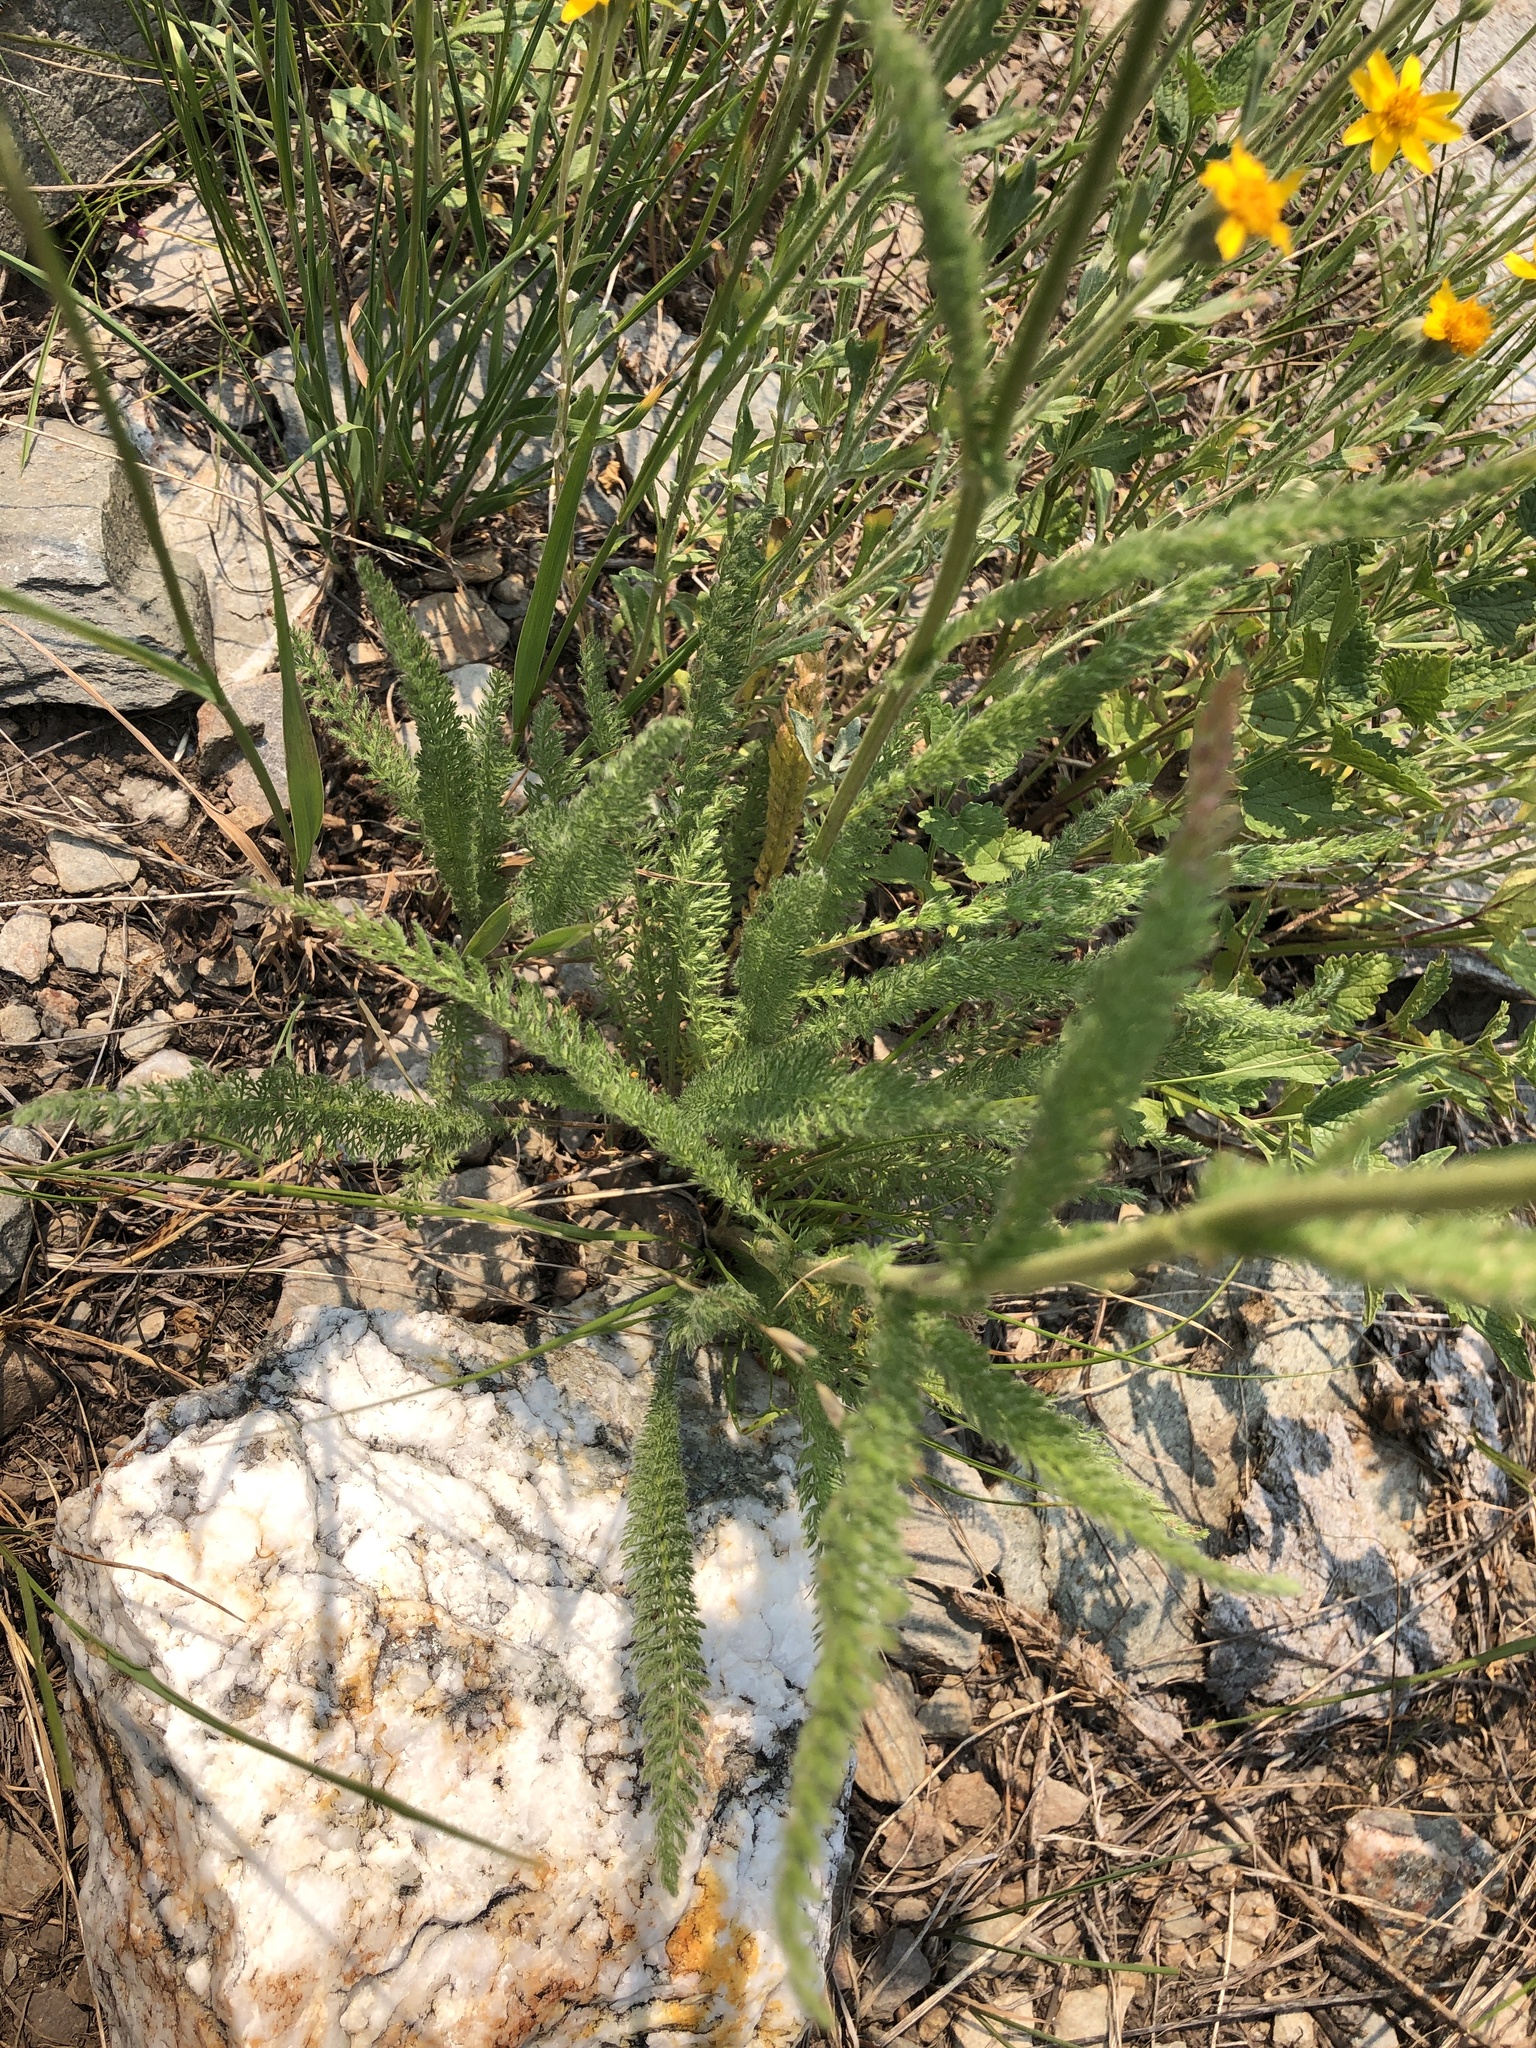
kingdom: Plantae
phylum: Tracheophyta
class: Magnoliopsida
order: Asterales
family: Asteraceae
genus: Achillea
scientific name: Achillea millefolium
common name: Yarrow
